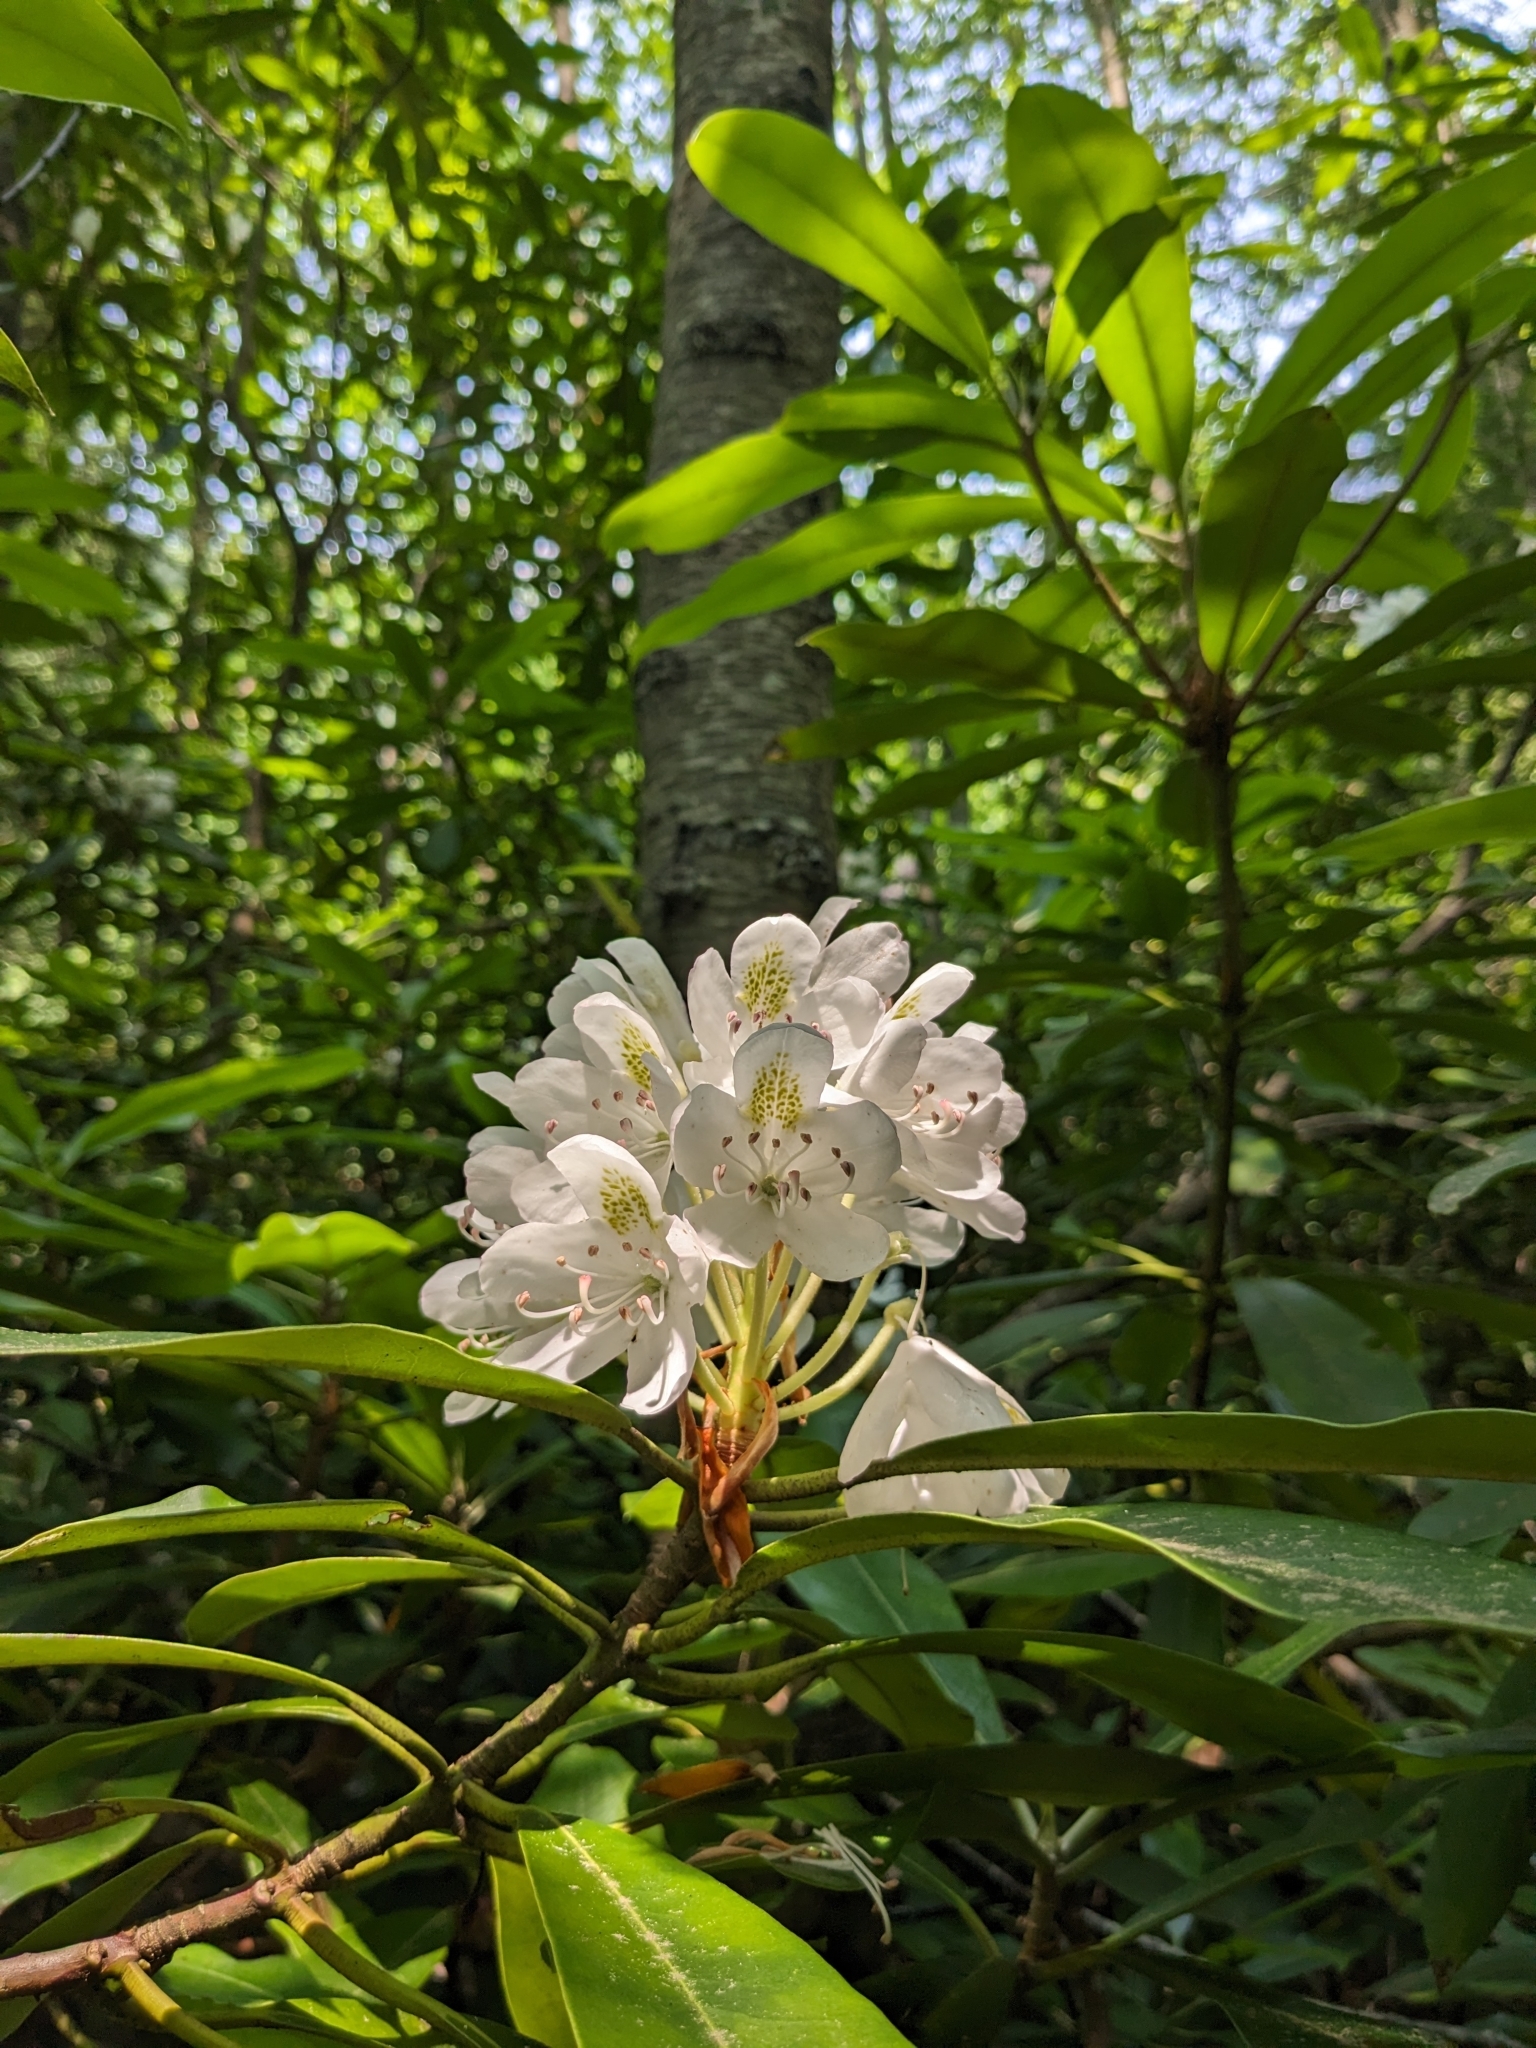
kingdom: Plantae
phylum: Tracheophyta
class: Magnoliopsida
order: Ericales
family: Ericaceae
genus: Rhododendron
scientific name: Rhododendron maximum
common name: Great rhododendron
